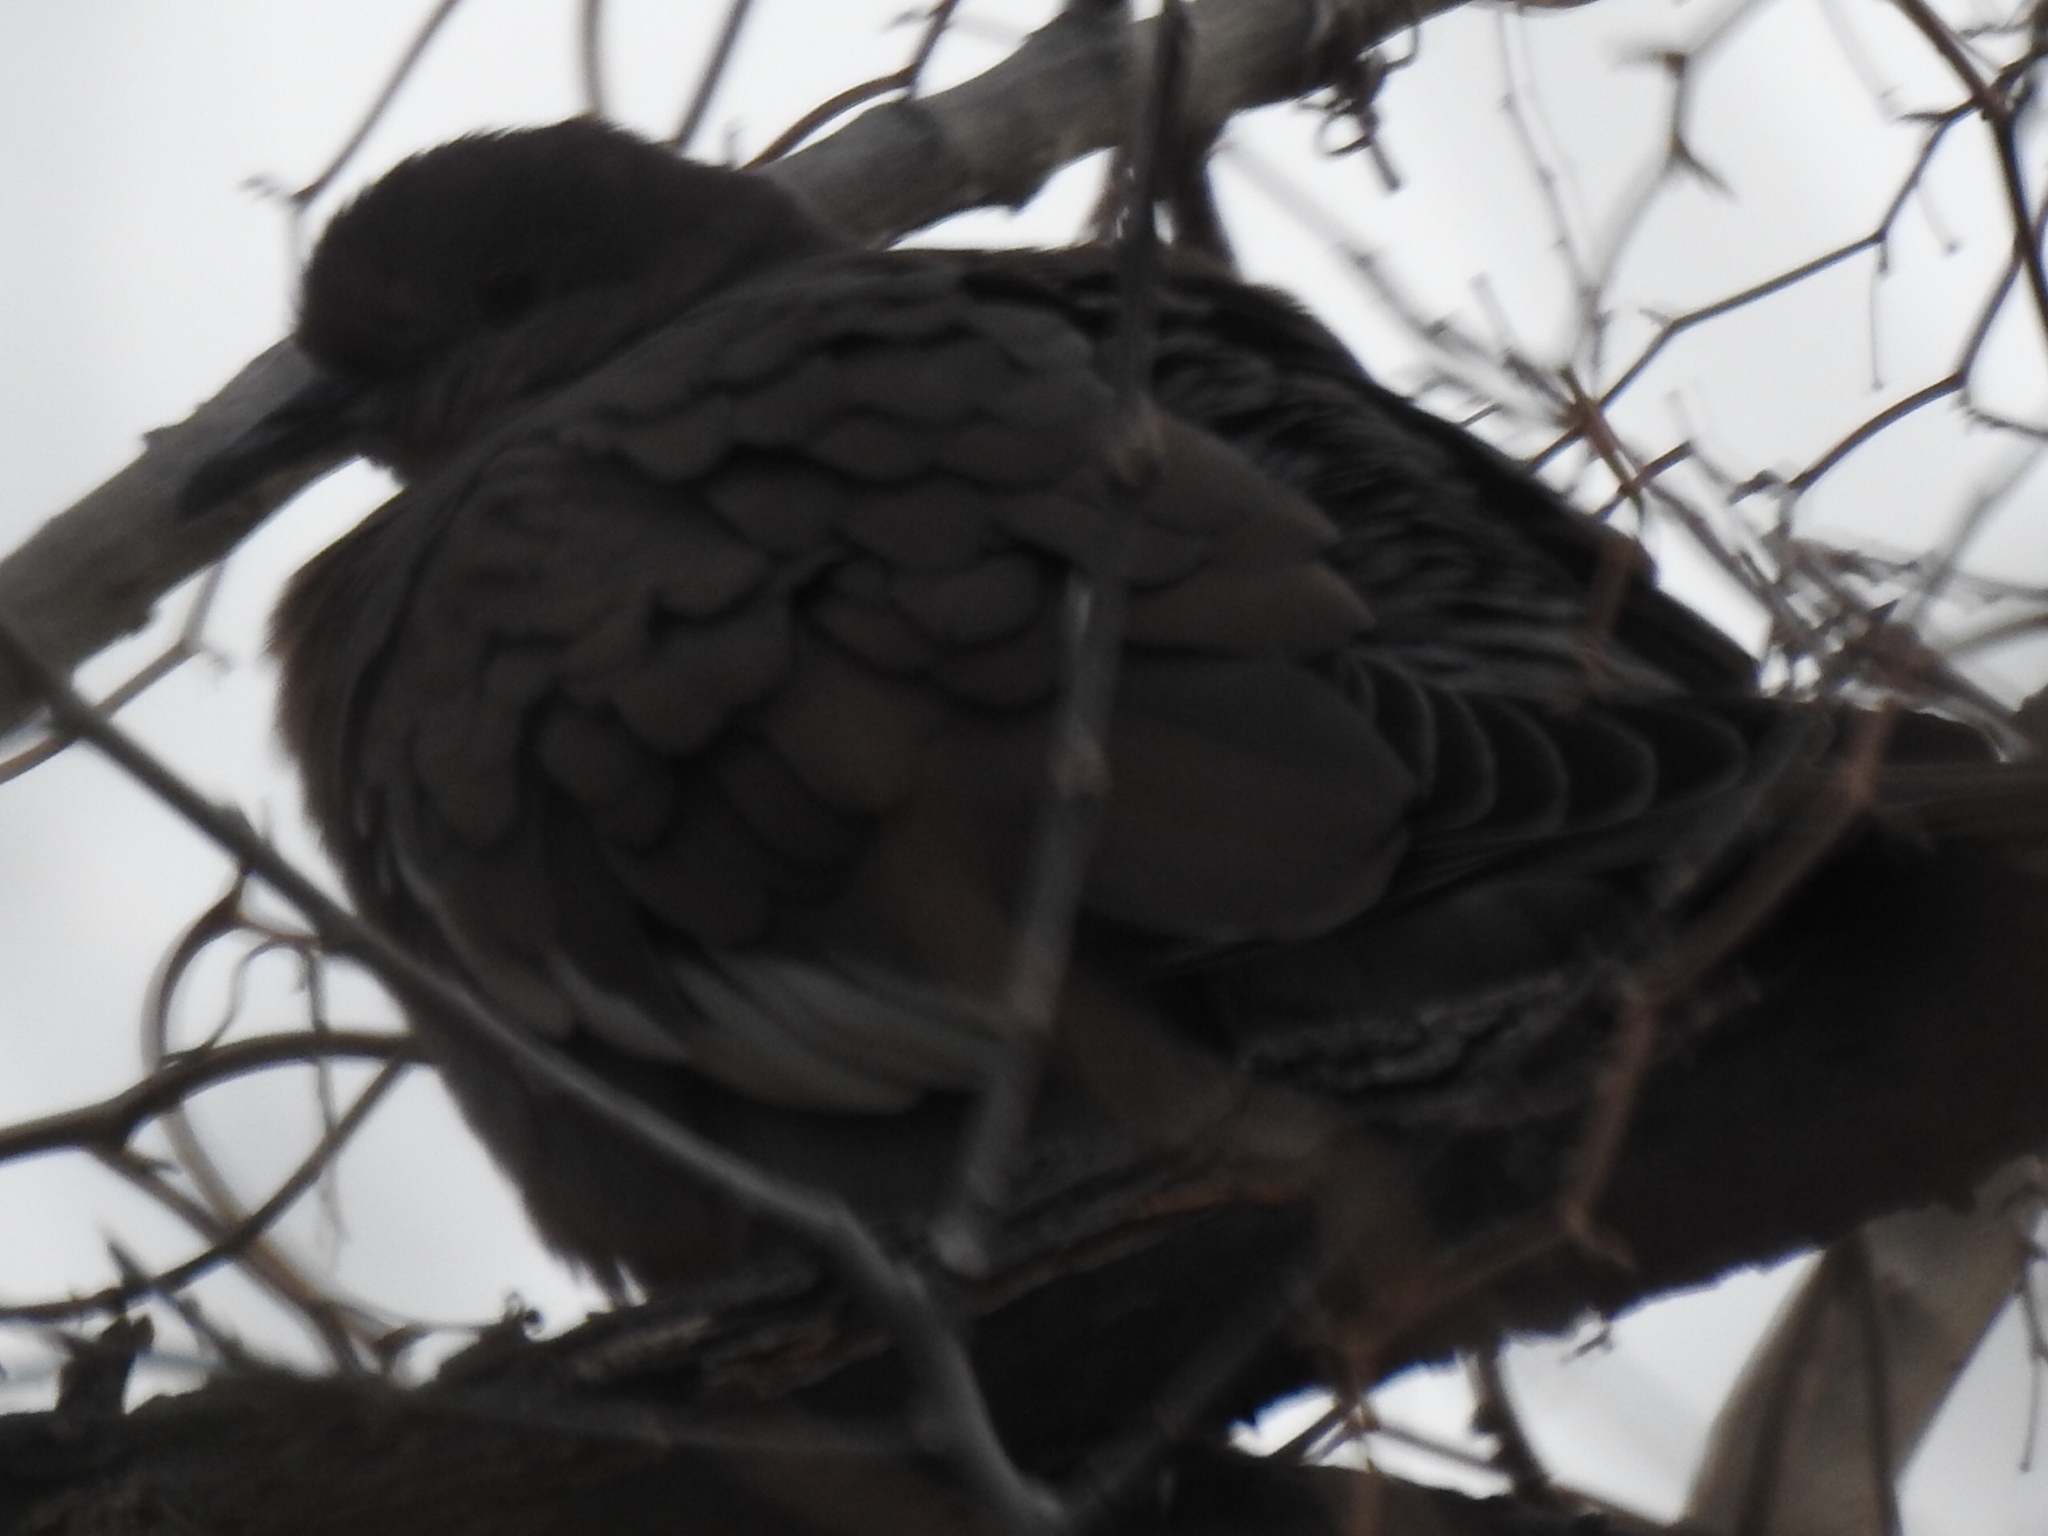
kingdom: Animalia
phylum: Chordata
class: Aves
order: Columbiformes
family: Columbidae
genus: Zenaida
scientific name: Zenaida asiatica
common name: White-winged dove
